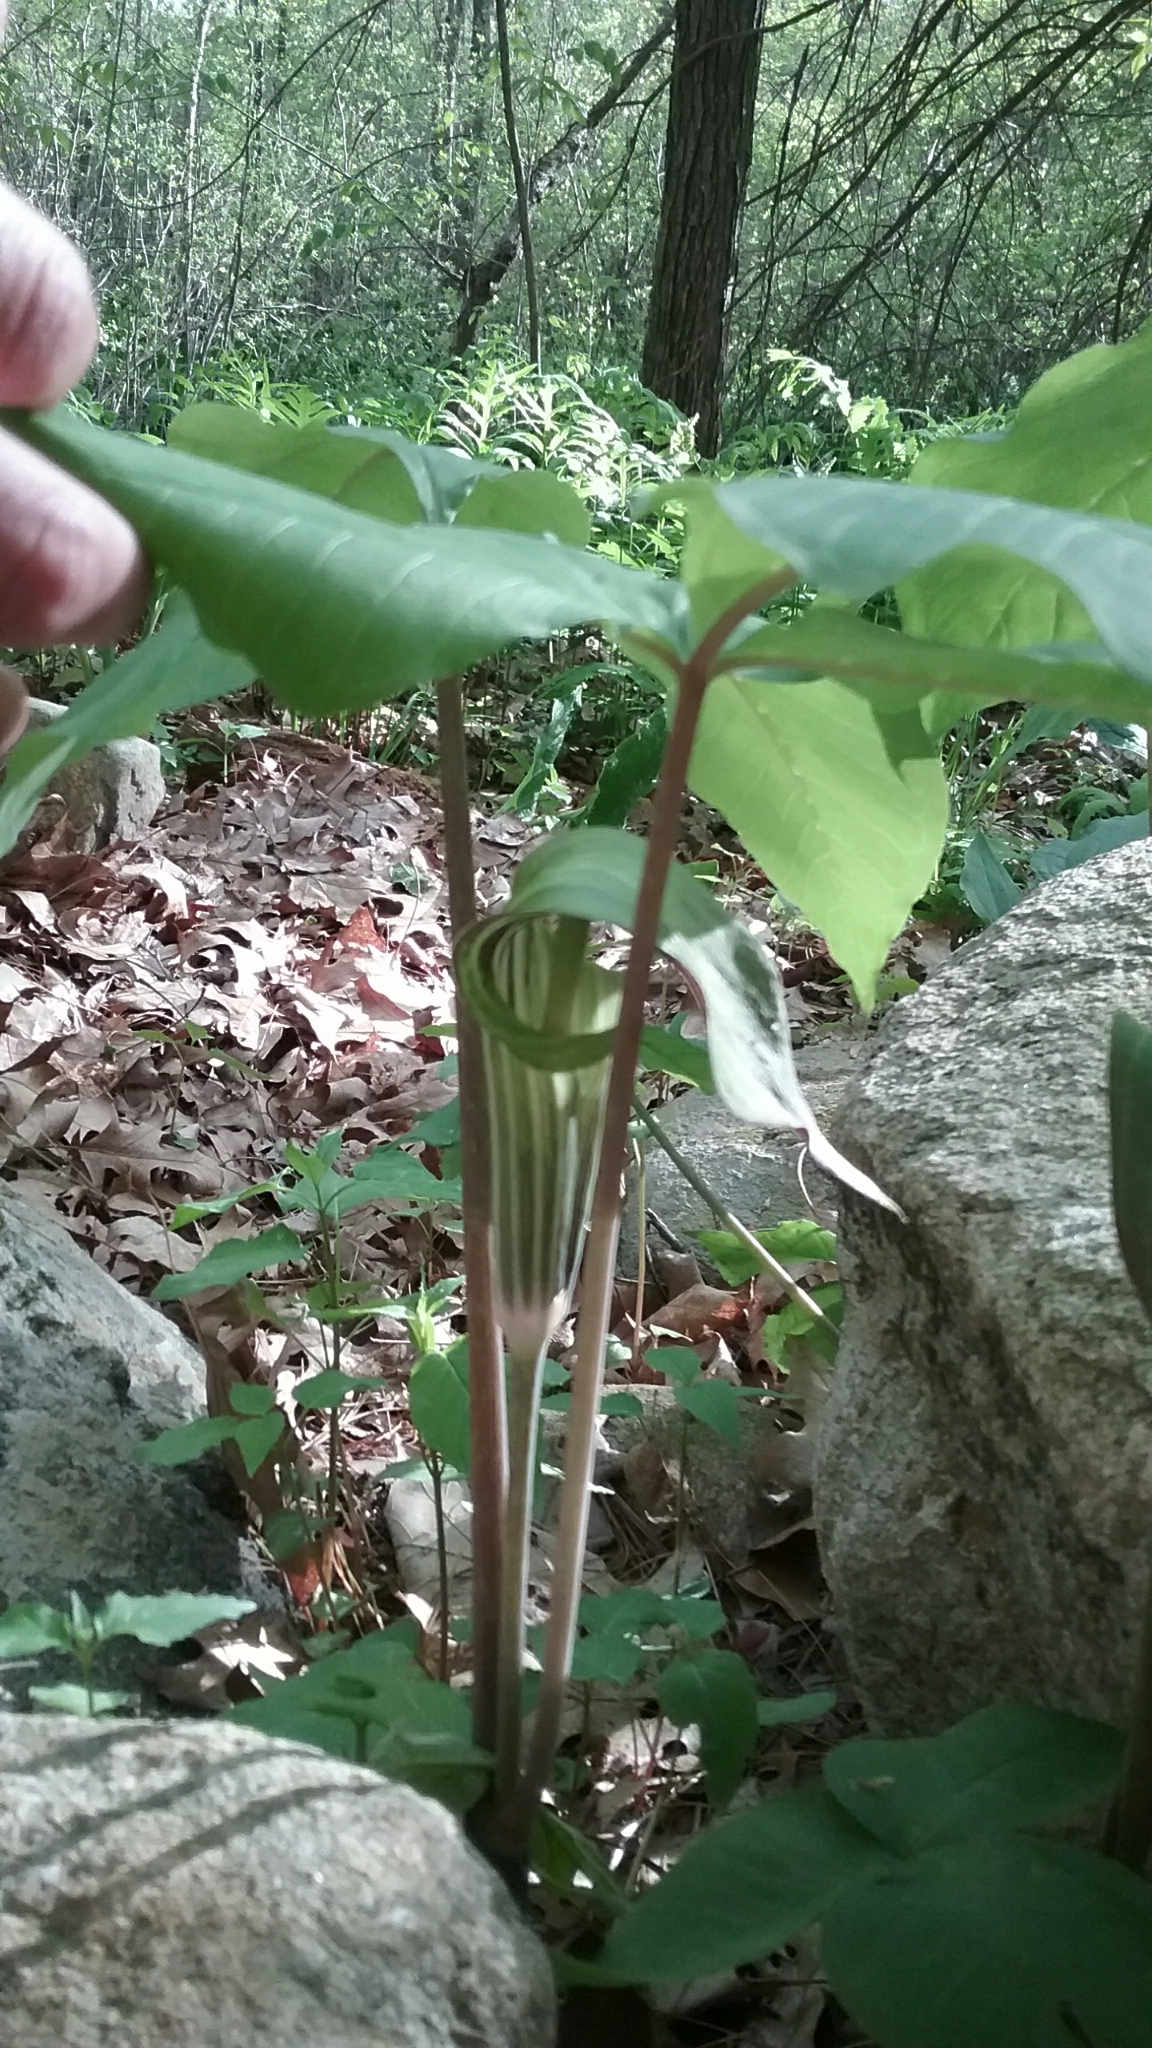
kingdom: Plantae
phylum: Tracheophyta
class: Liliopsida
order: Alismatales
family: Araceae
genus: Arisaema
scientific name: Arisaema triphyllum
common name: Jack-in-the-pulpit
